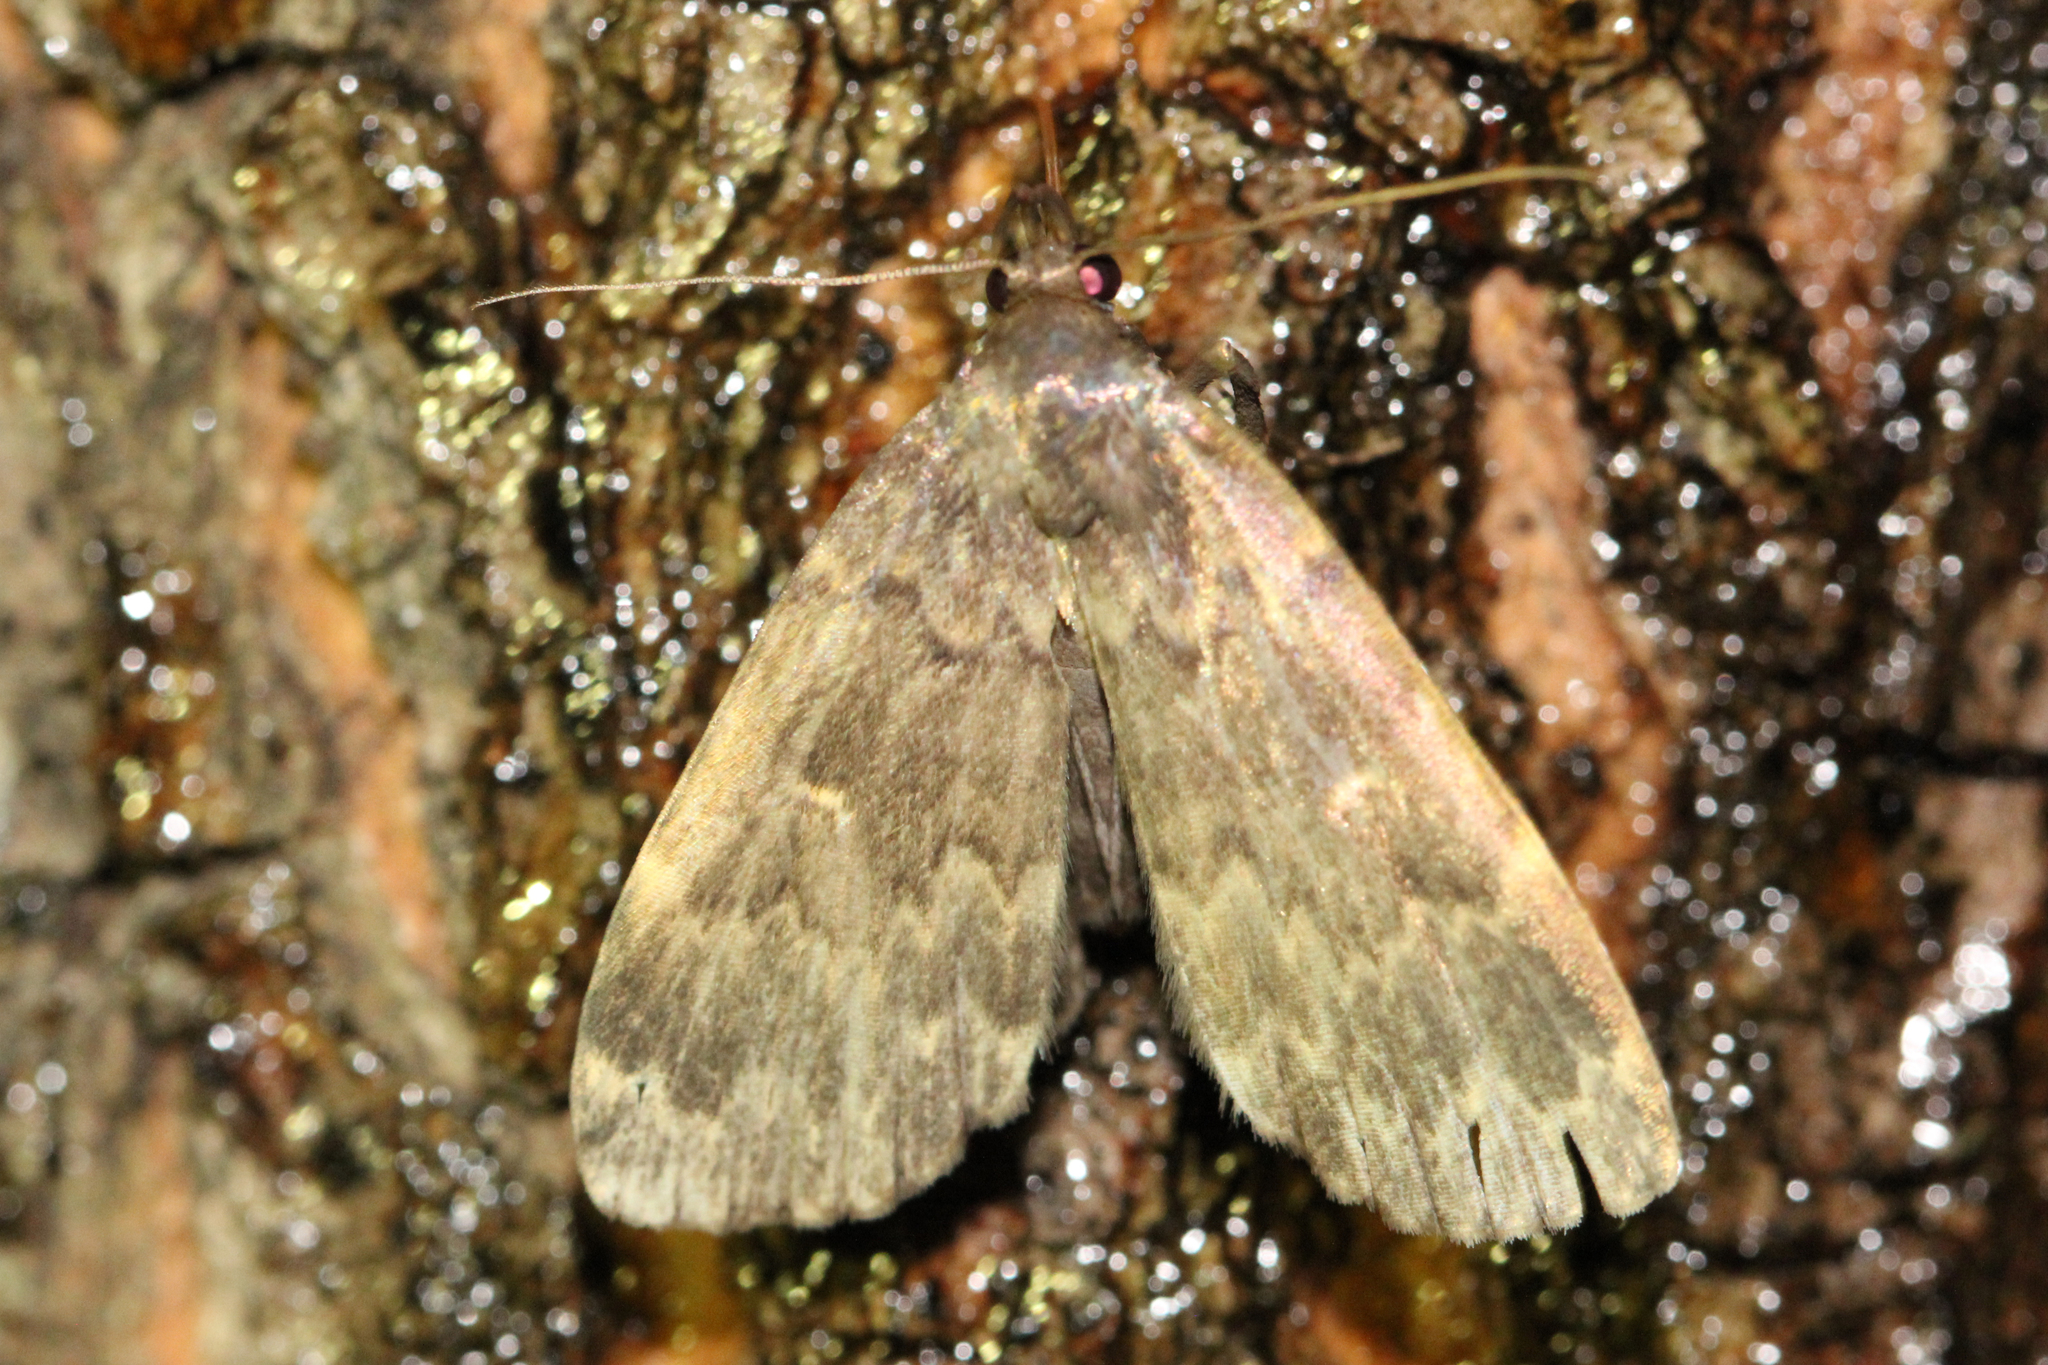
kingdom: Animalia
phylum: Arthropoda
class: Insecta
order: Lepidoptera
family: Erebidae
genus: Idia
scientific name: Idia lubricalis
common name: Twin-striped tabby
